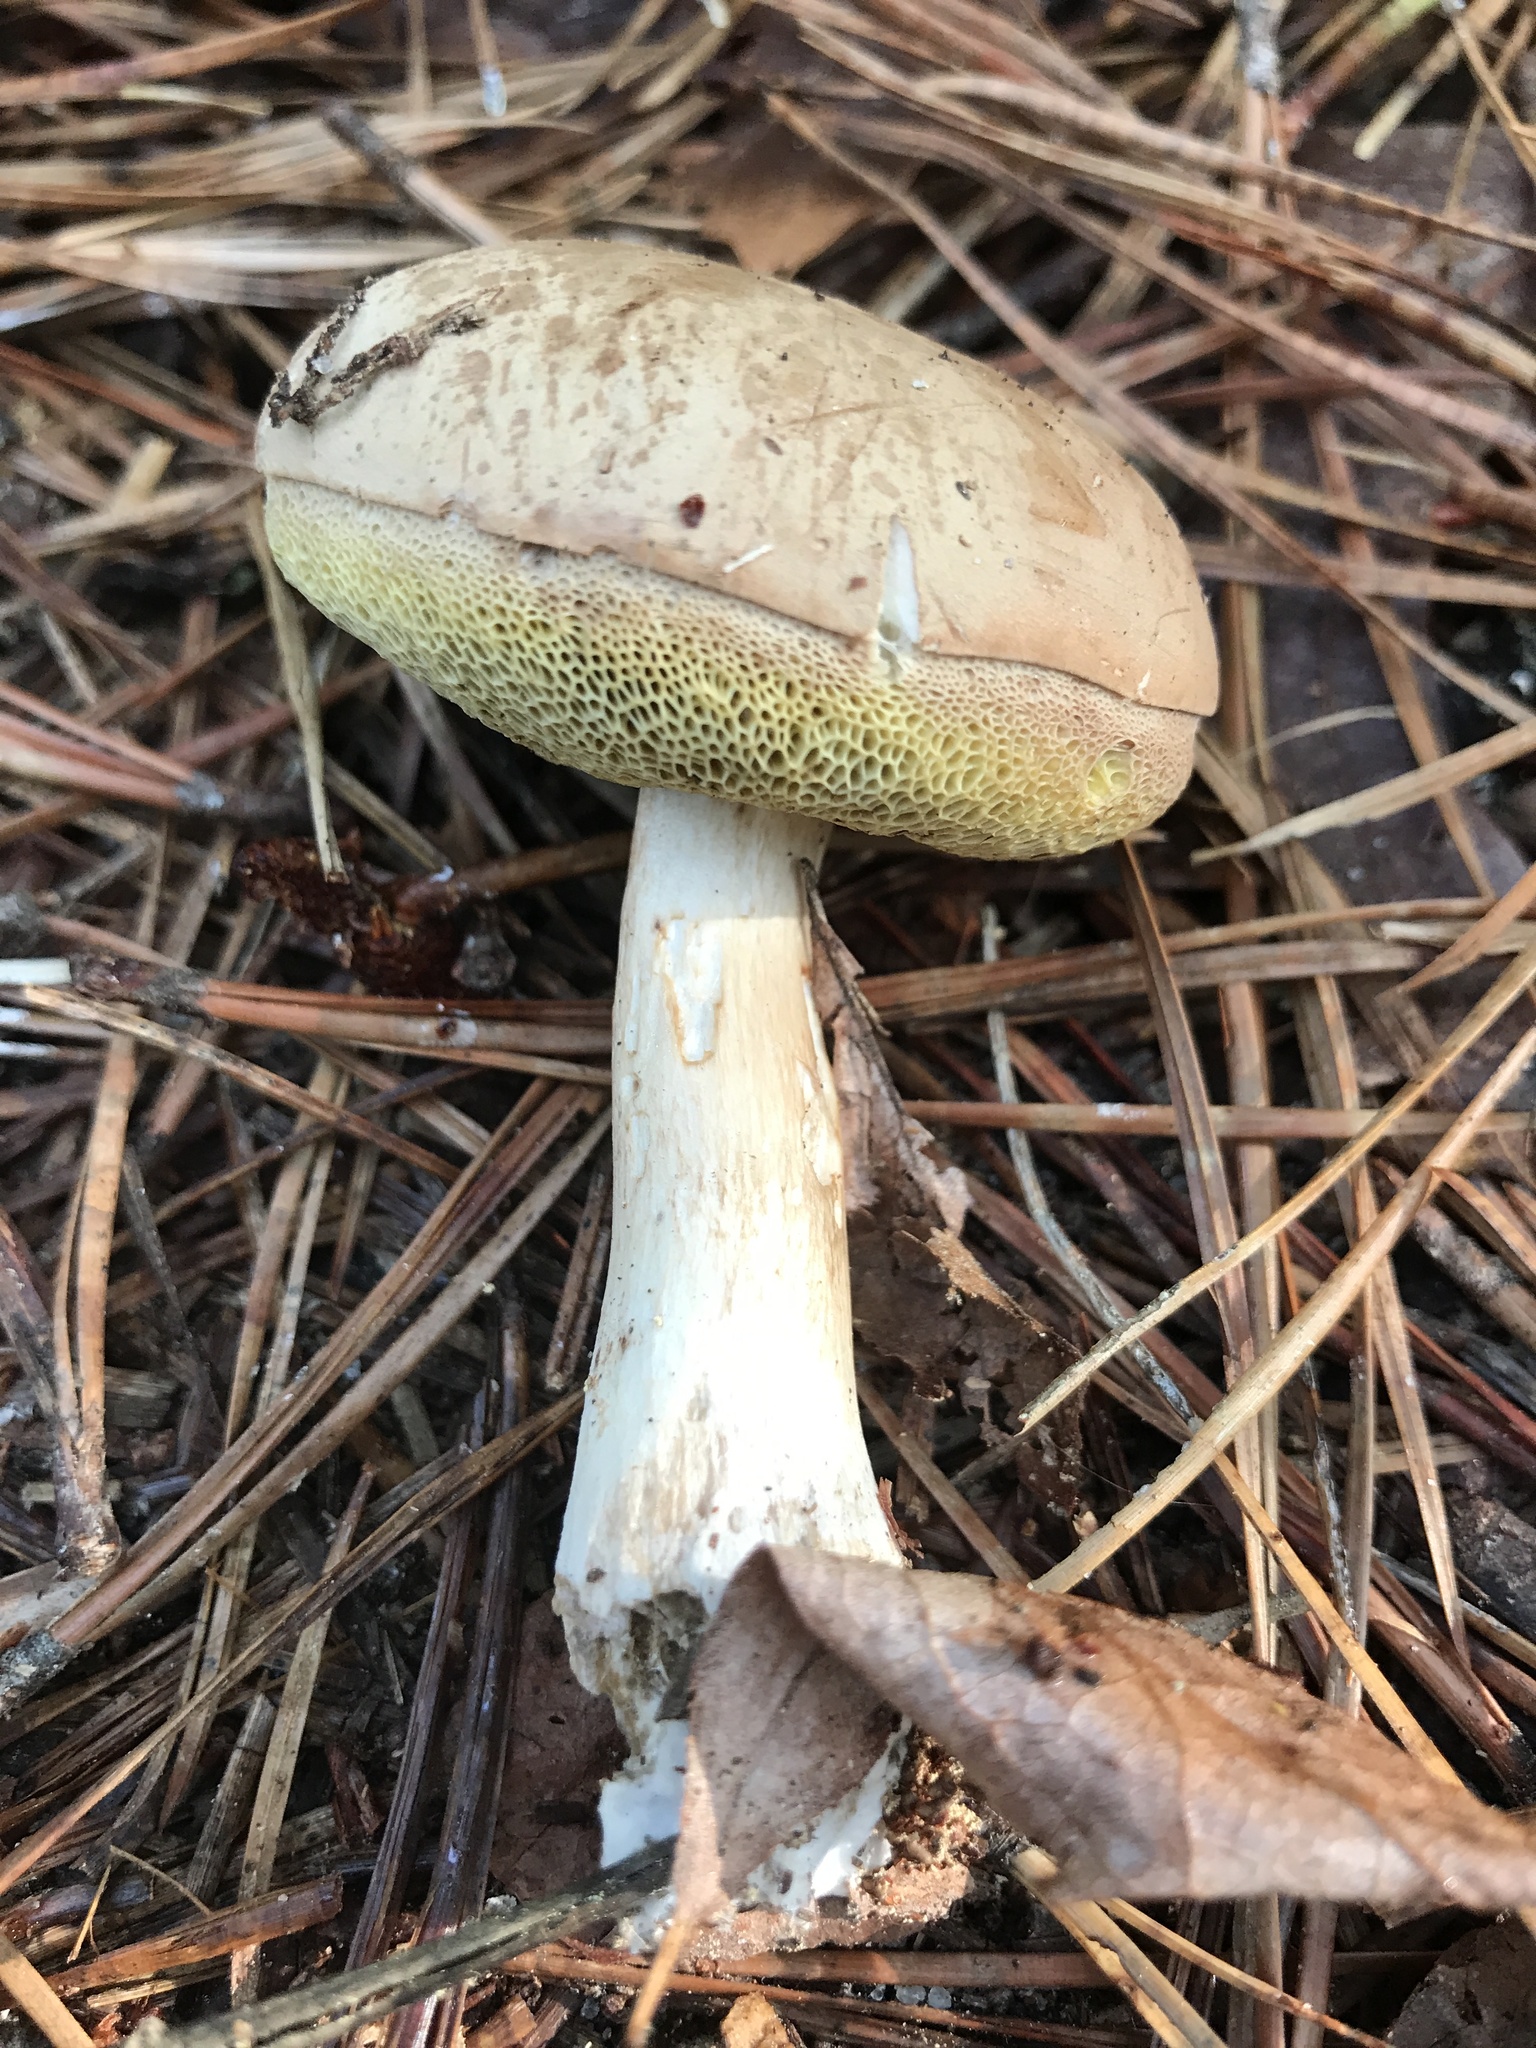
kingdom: Fungi
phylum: Basidiomycota
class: Agaricomycetes
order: Boletales
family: Boletaceae
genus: Imleria
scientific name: Imleria pallida
